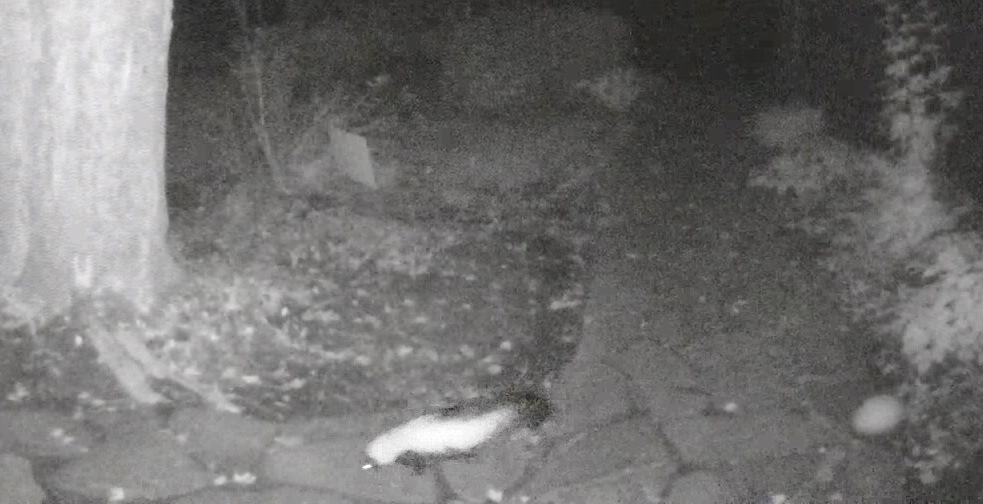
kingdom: Animalia
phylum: Chordata
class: Mammalia
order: Carnivora
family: Mephitidae
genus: Mephitis
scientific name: Mephitis mephitis
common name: Striped skunk
